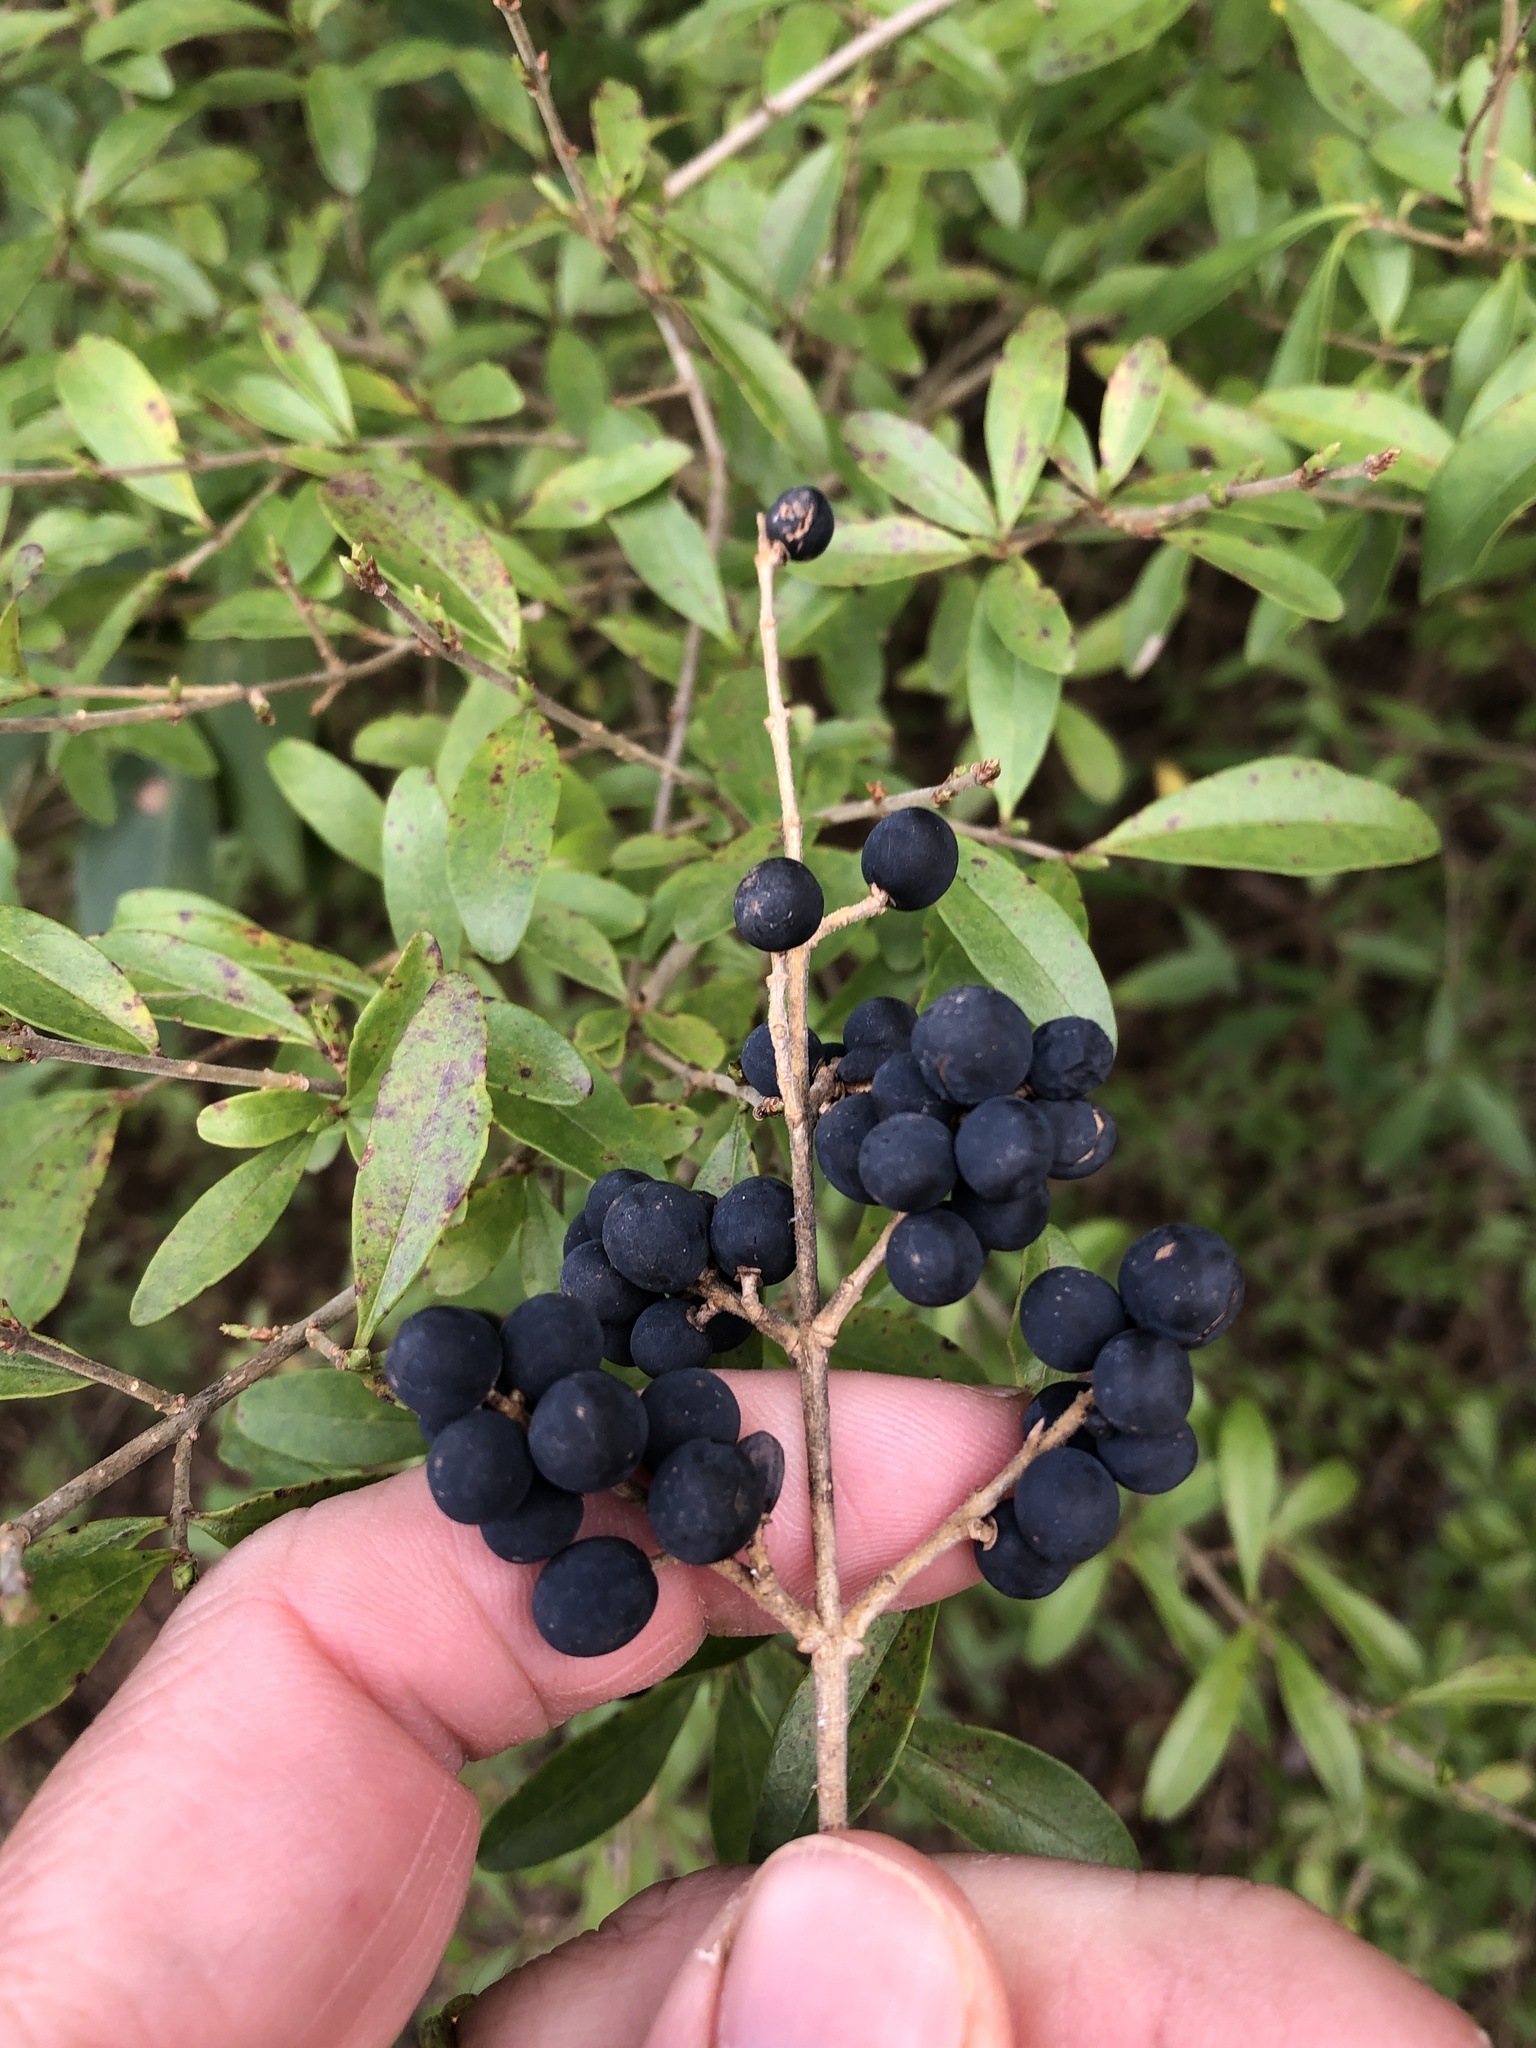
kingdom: Plantae
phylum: Tracheophyta
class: Magnoliopsida
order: Lamiales
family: Oleaceae
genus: Ligustrum
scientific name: Ligustrum quihoui
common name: Waxyleaf privet
